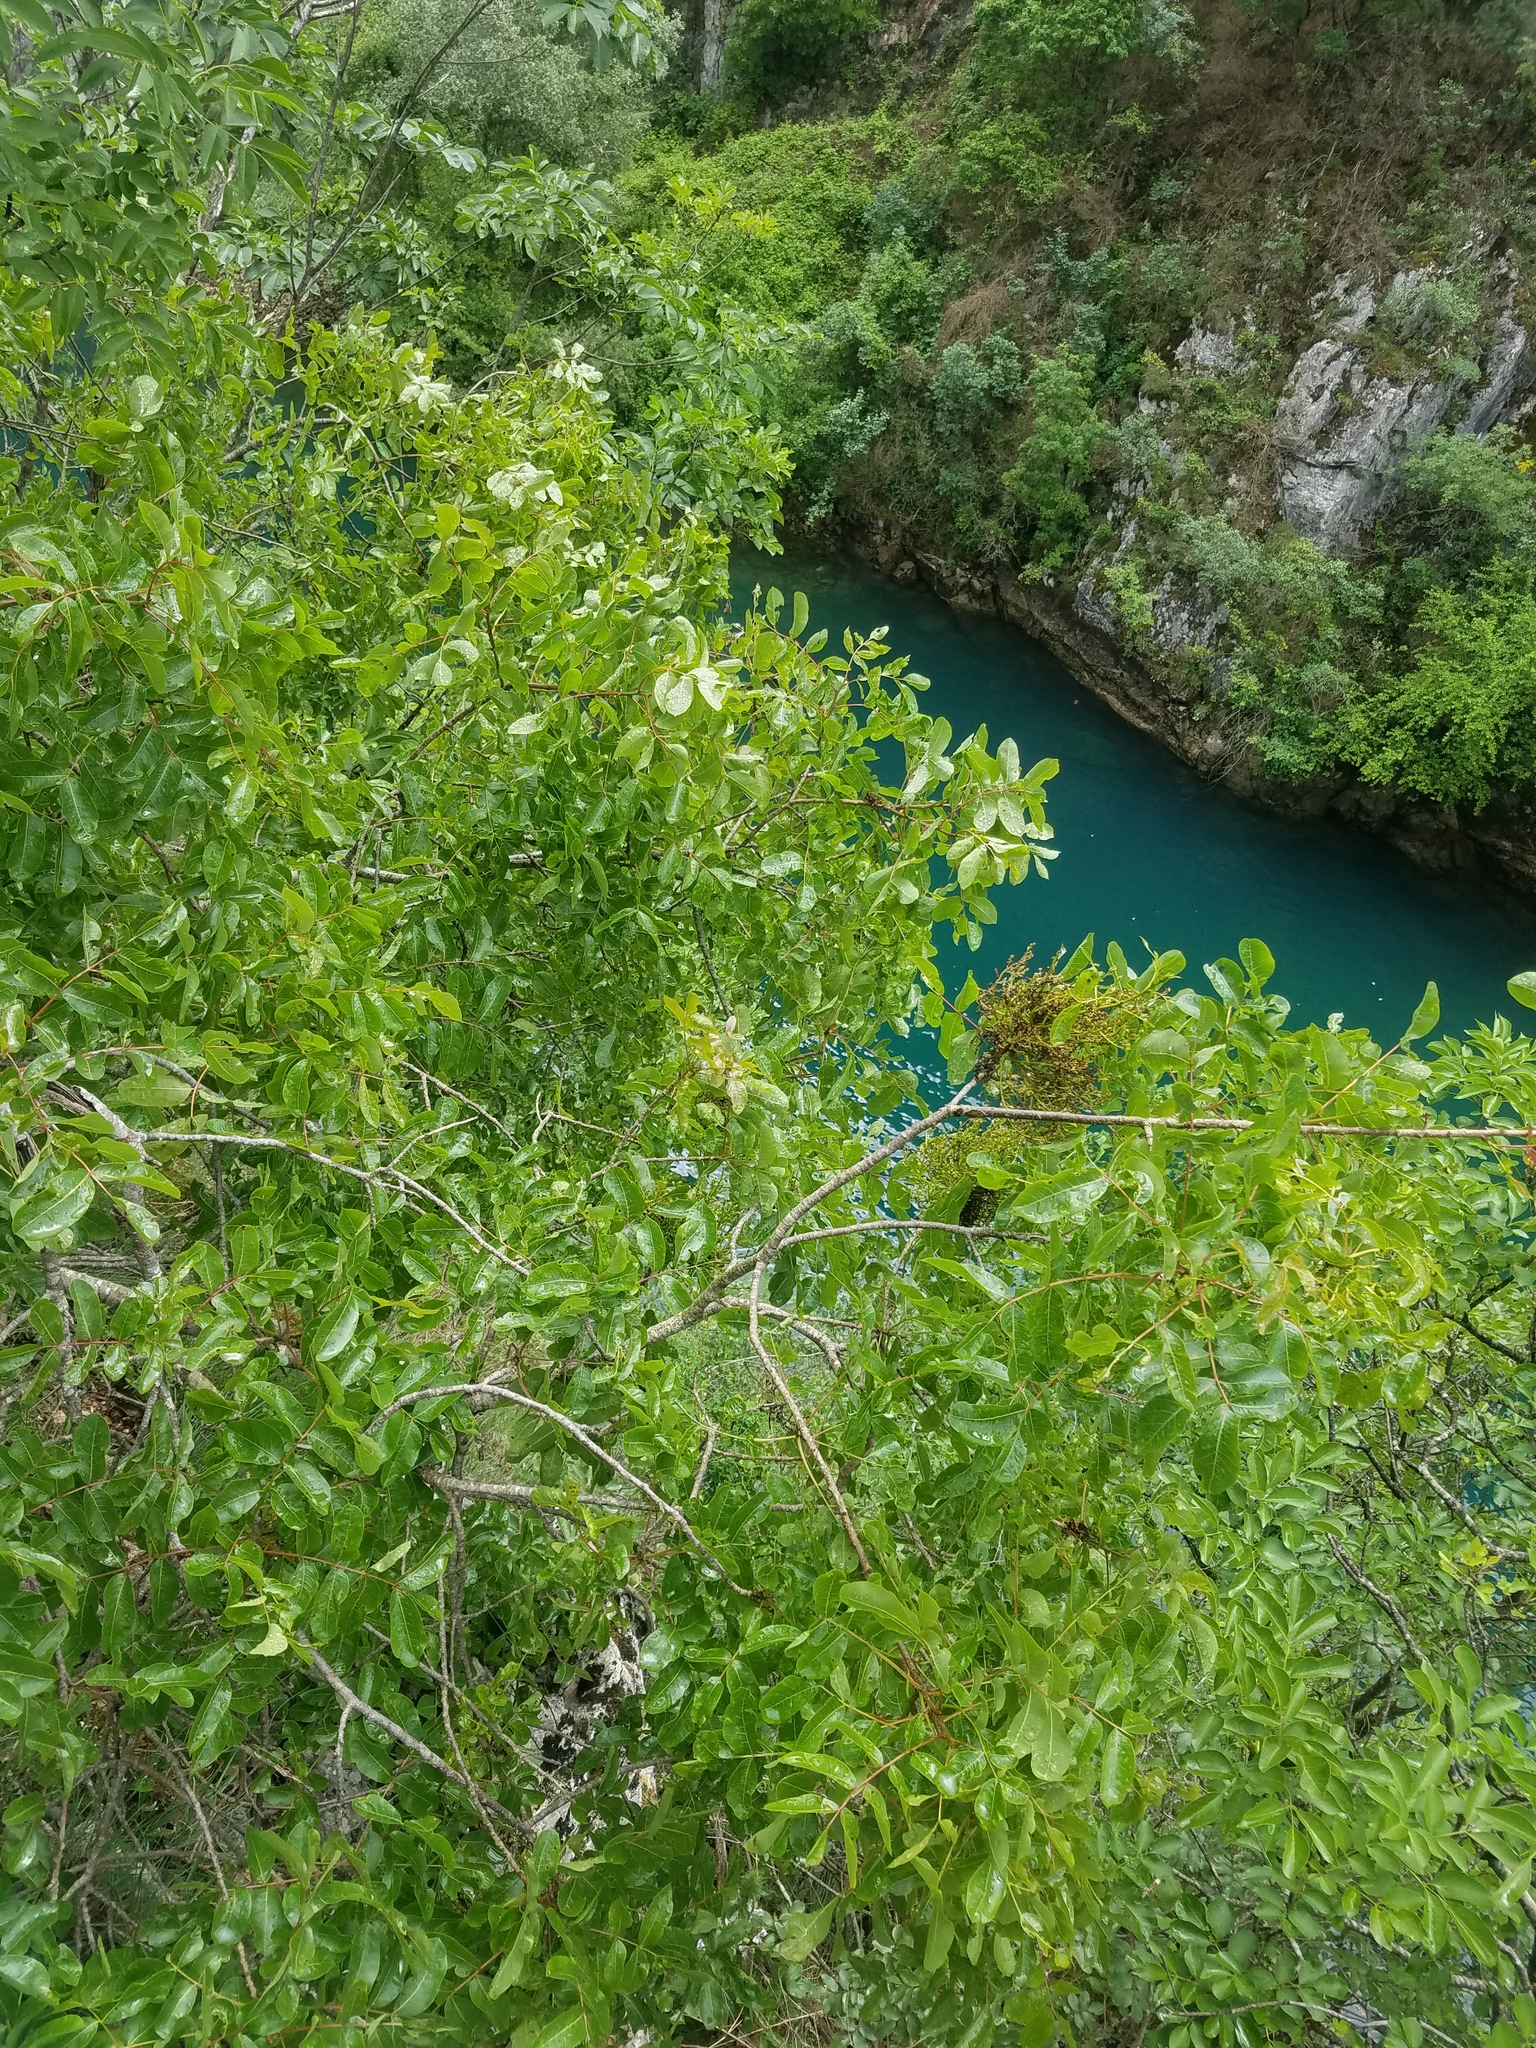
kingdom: Plantae
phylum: Tracheophyta
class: Magnoliopsida
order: Sapindales
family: Anacardiaceae
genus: Pistacia
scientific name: Pistacia terebinthus
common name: Terebinth
